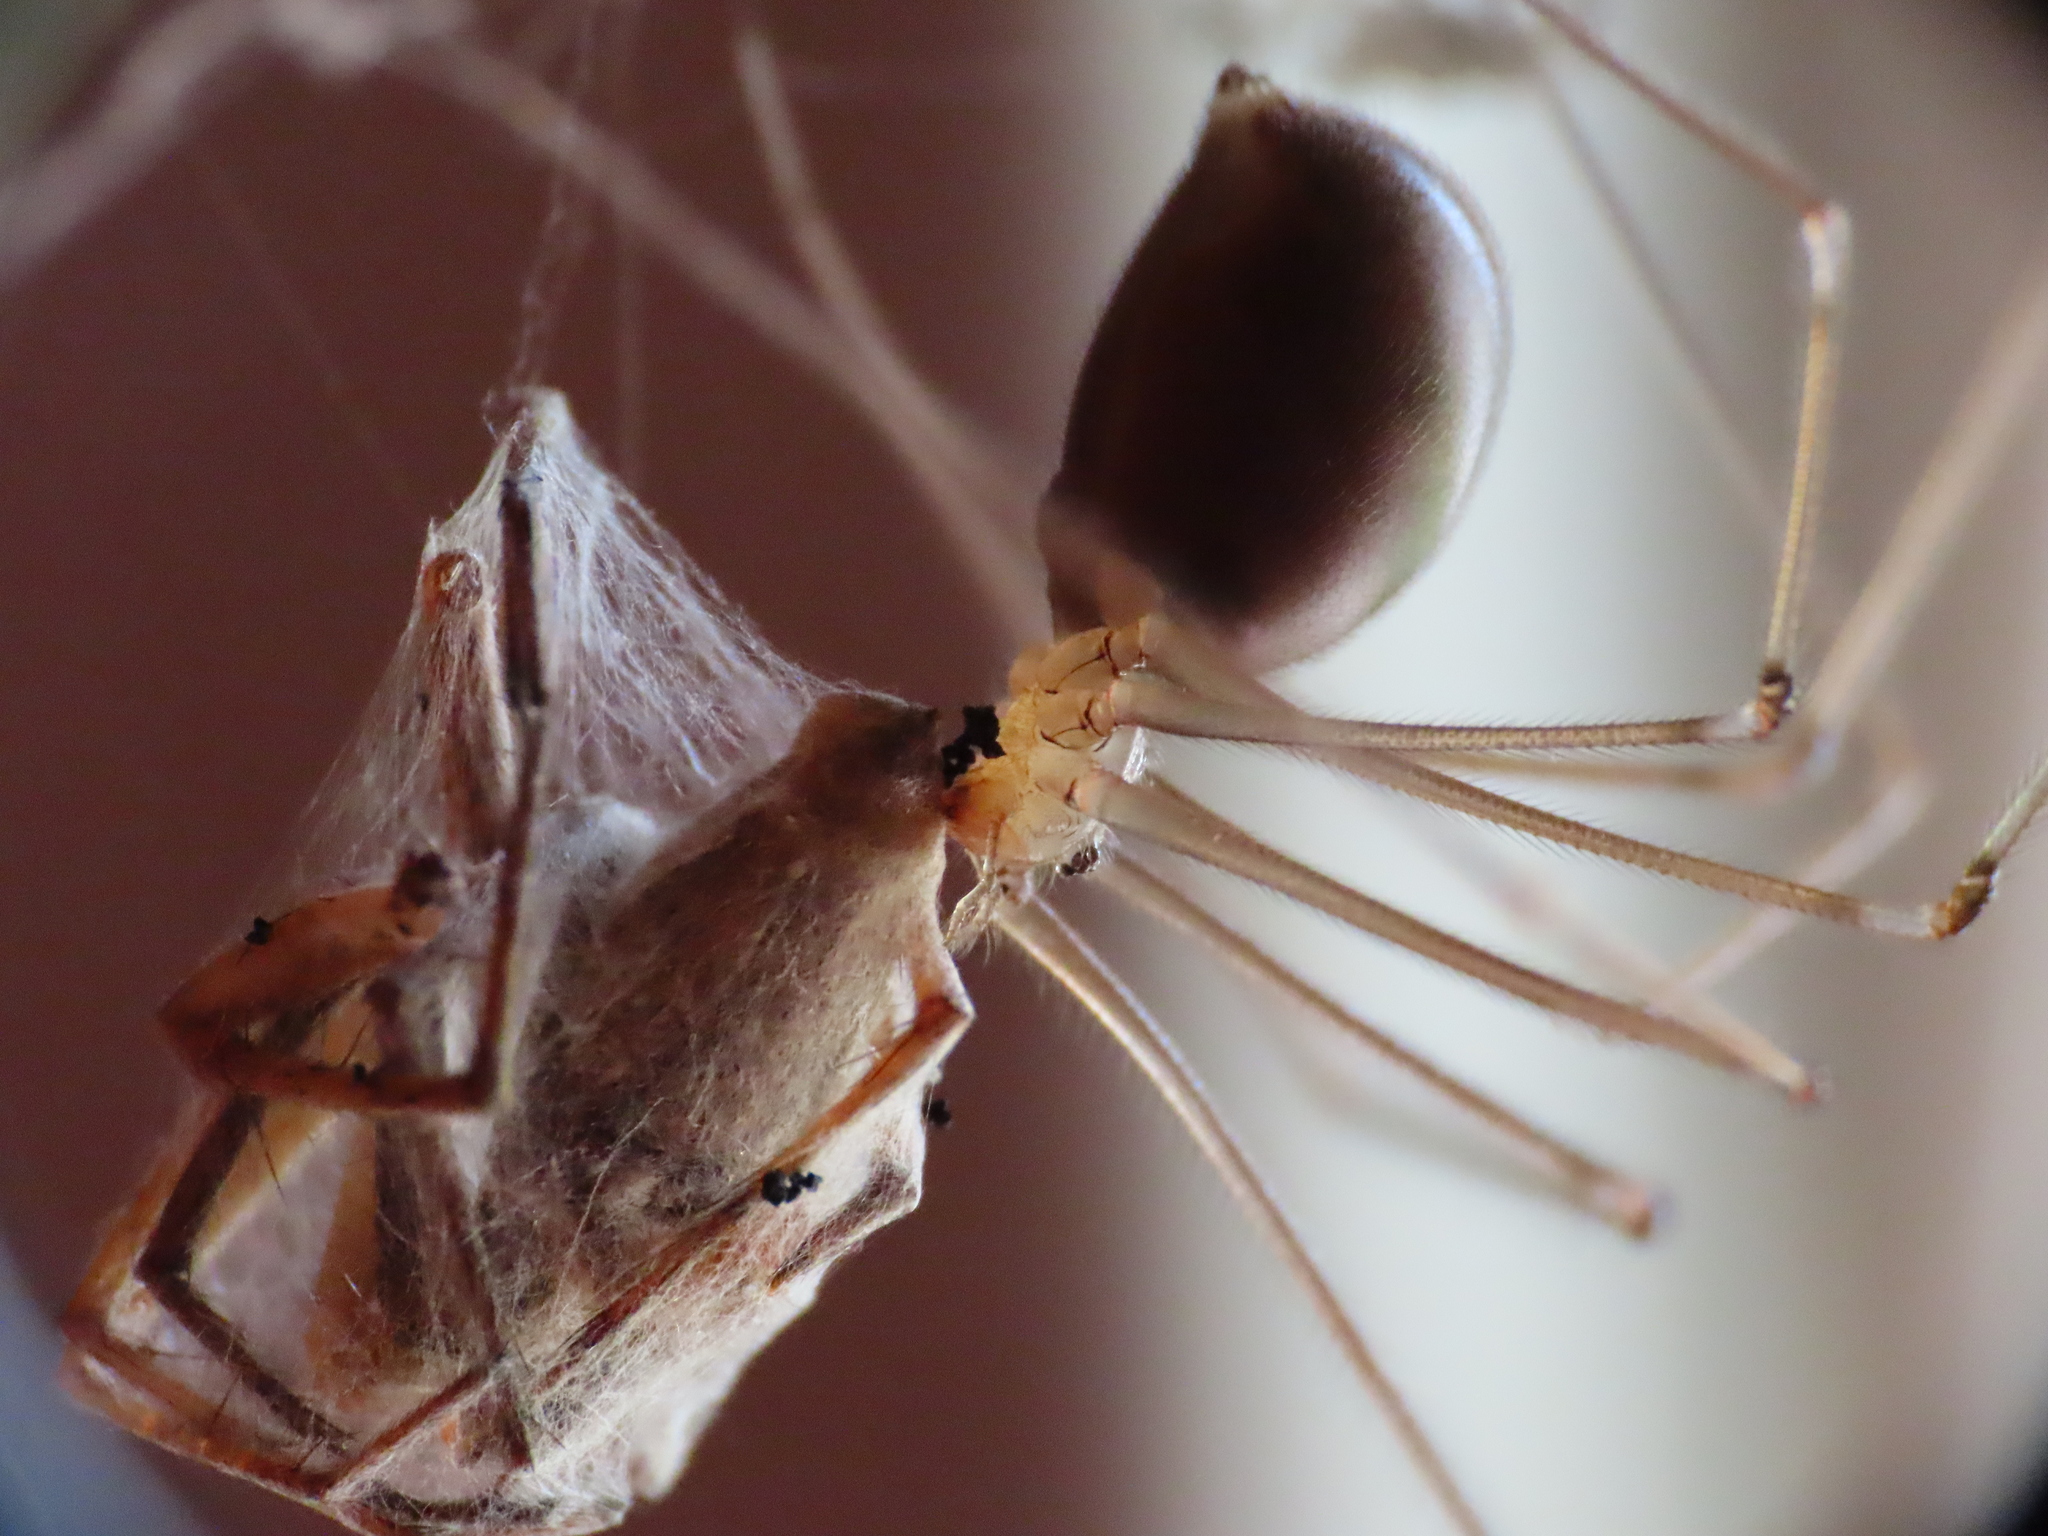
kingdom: Animalia
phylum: Arthropoda
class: Arachnida
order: Araneae
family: Pholcidae
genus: Pholcus
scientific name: Pholcus phalangioides
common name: Longbodied cellar spider
